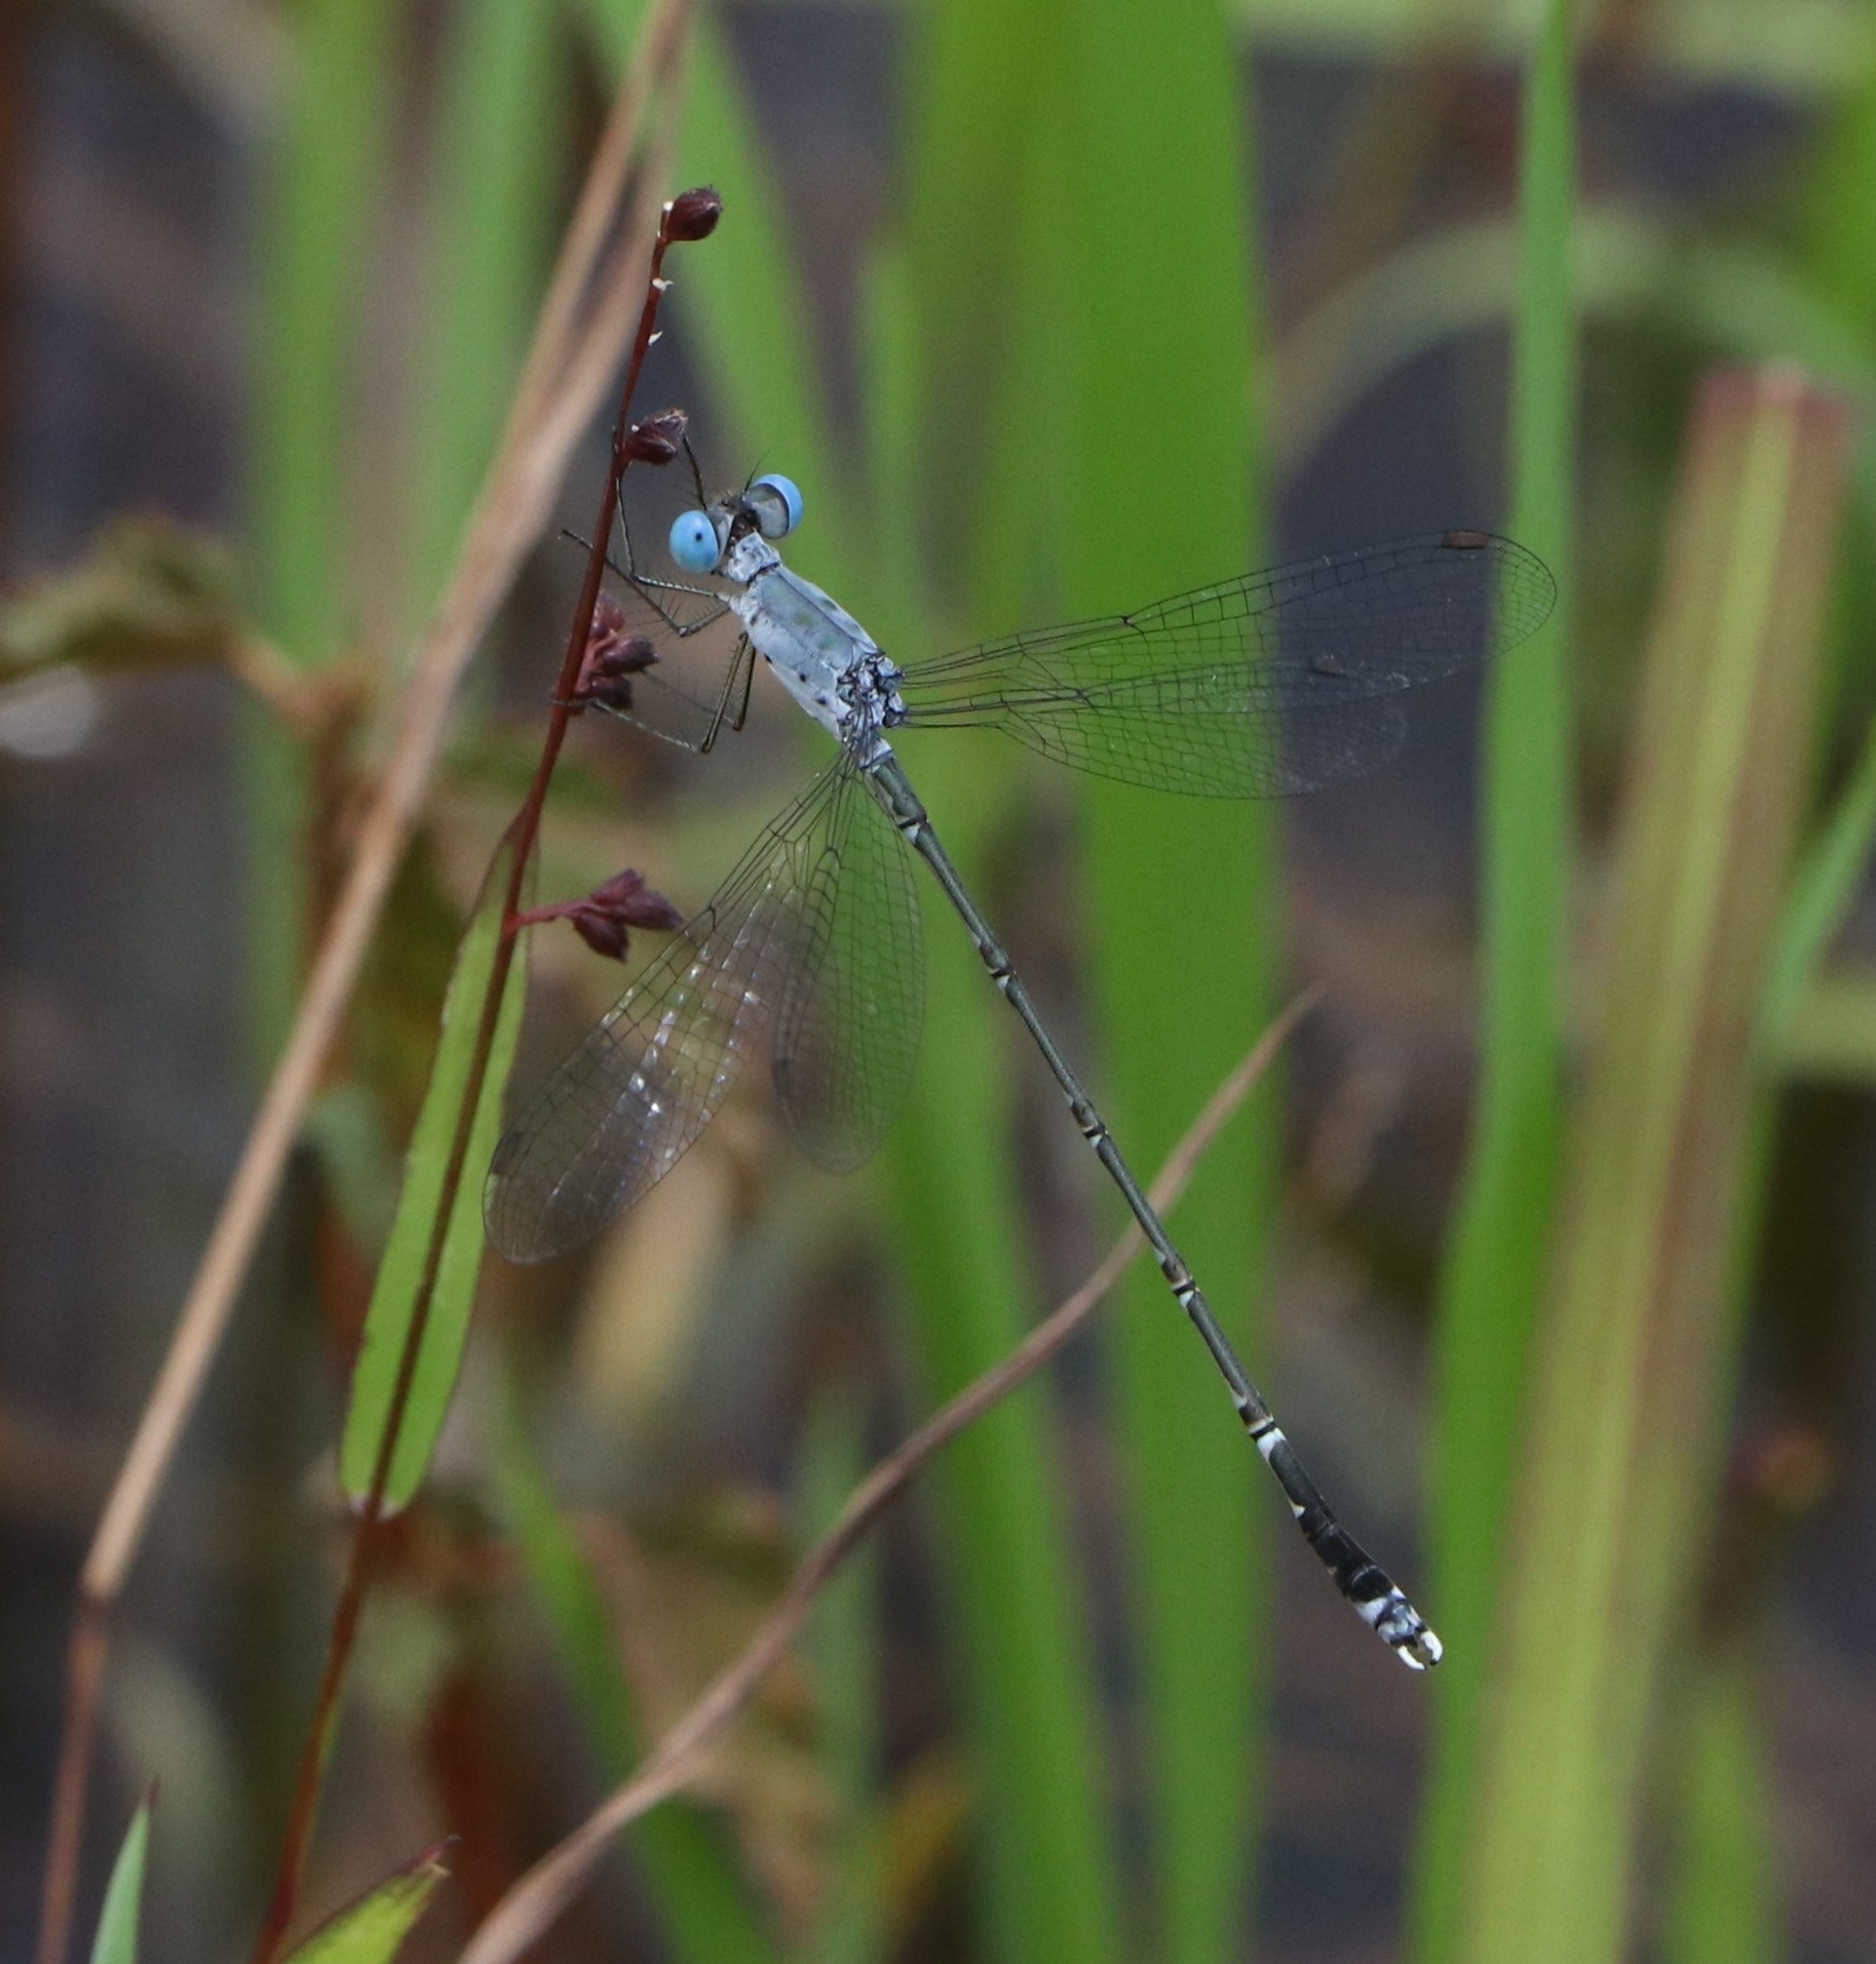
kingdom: Animalia
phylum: Arthropoda
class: Insecta
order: Odonata
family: Lestidae
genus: Lestes
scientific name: Lestes praemorsus
